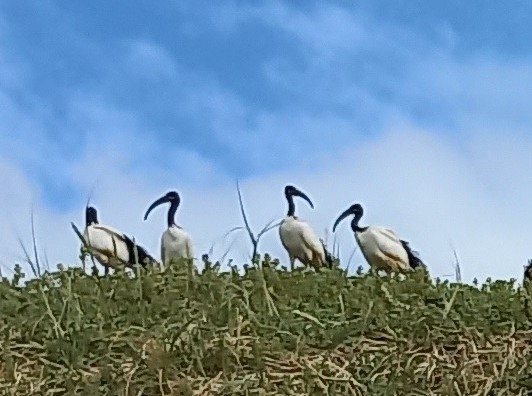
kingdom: Animalia
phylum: Chordata
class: Aves
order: Pelecaniformes
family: Threskiornithidae
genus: Threskiornis
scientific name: Threskiornis aethiopicus
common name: Sacred ibis
